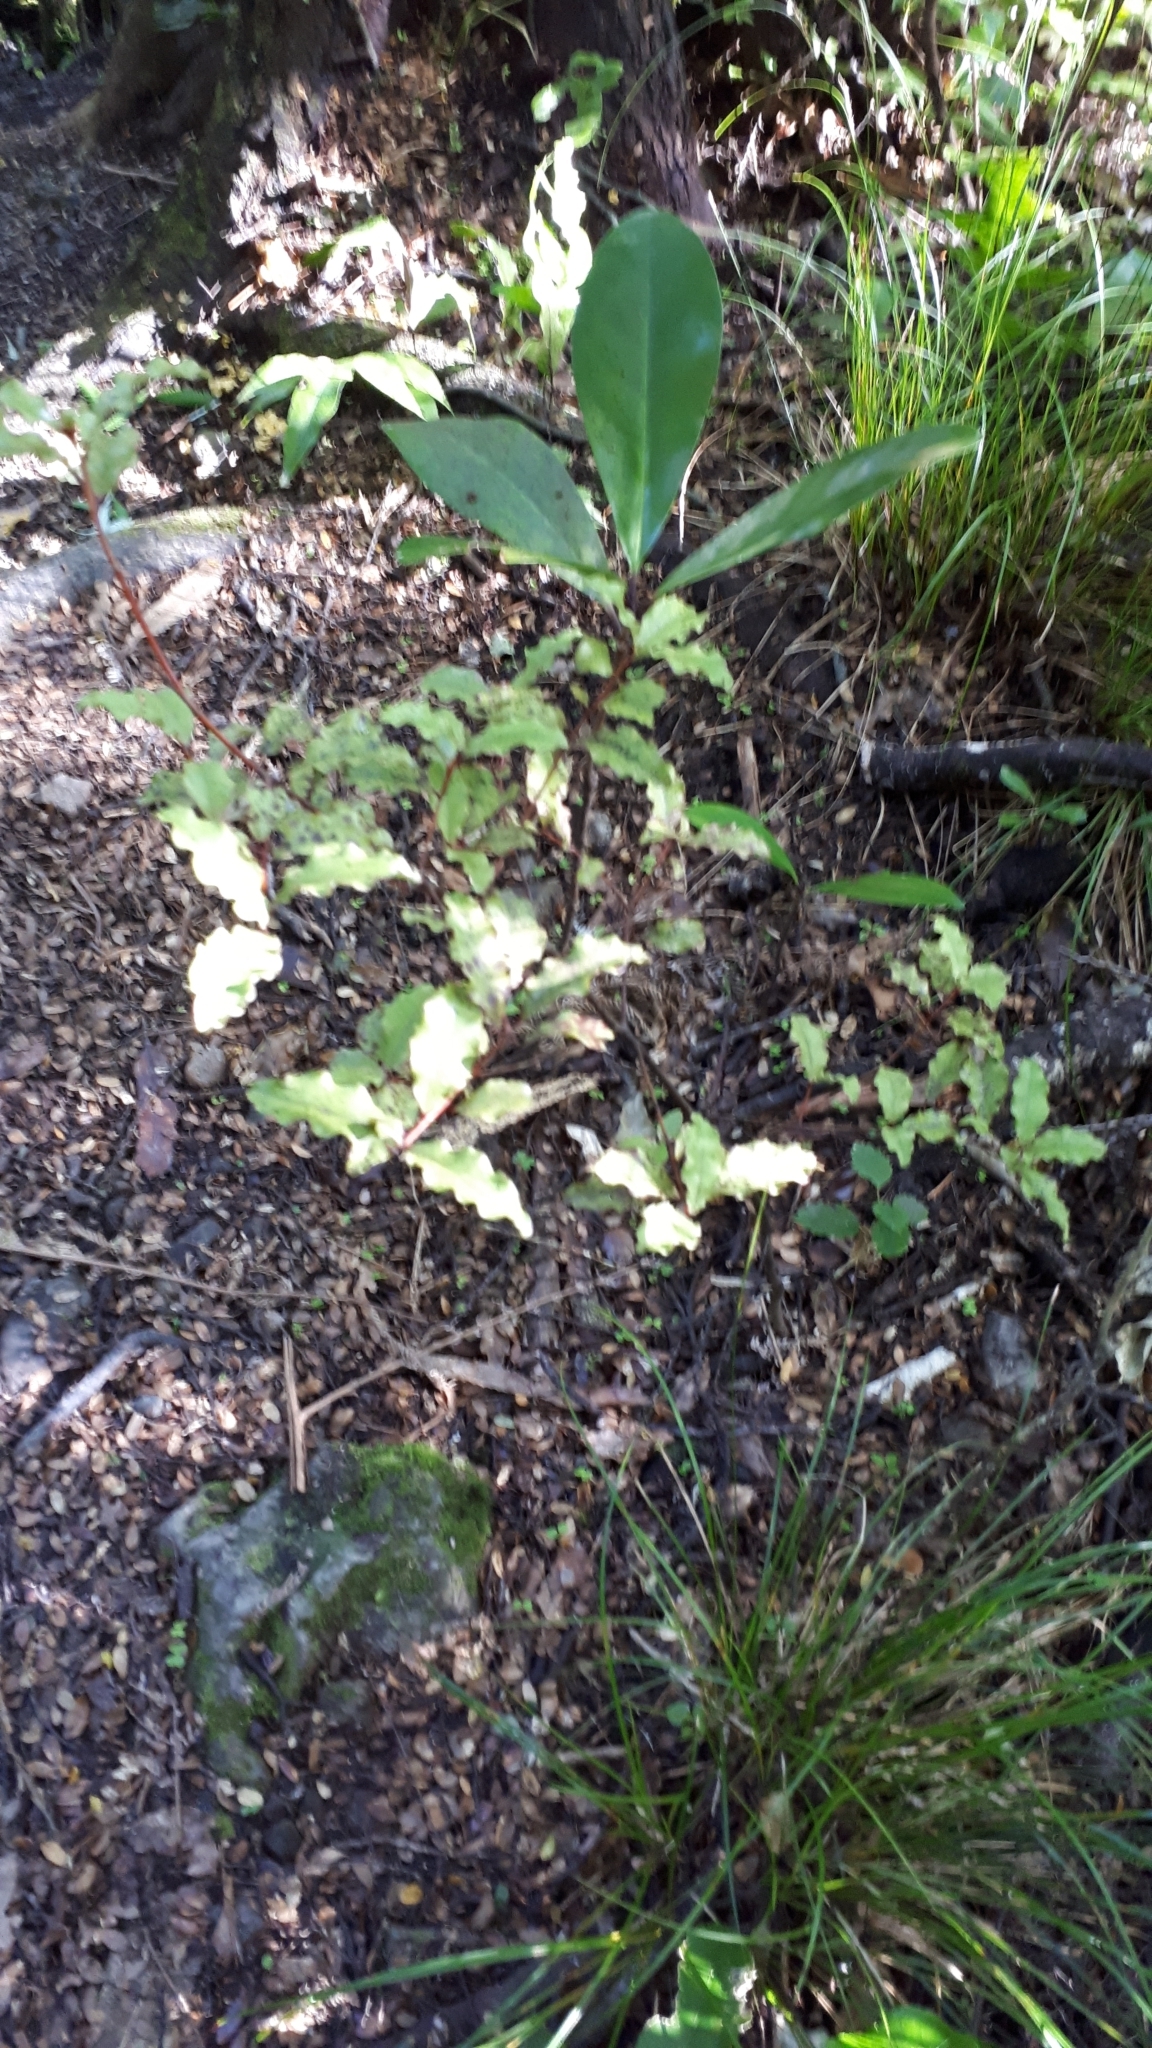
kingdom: Plantae
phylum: Tracheophyta
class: Magnoliopsida
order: Ericales
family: Primulaceae
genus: Myrsine
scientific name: Myrsine australis
